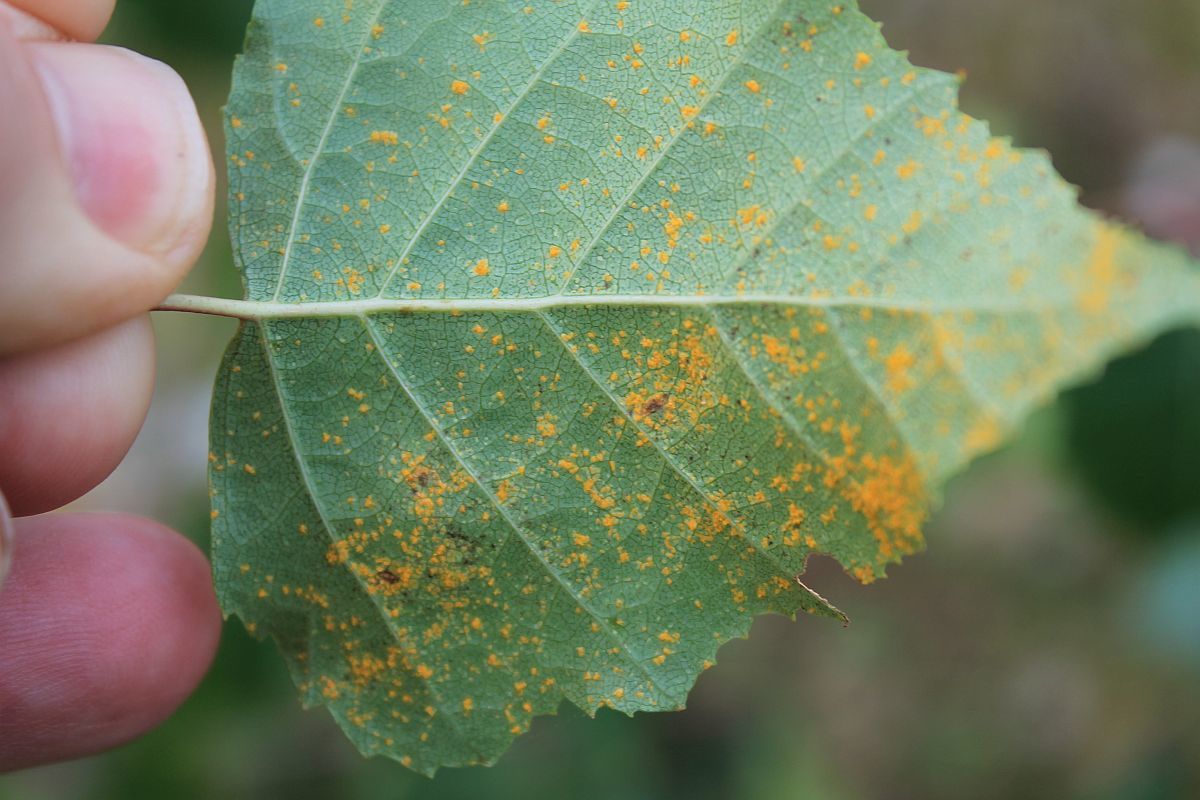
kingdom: Fungi
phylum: Basidiomycota
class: Pucciniomycetes
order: Pucciniales
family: Pucciniastraceae
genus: Melampsoridium
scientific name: Melampsoridium betulinum
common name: Birch rust
